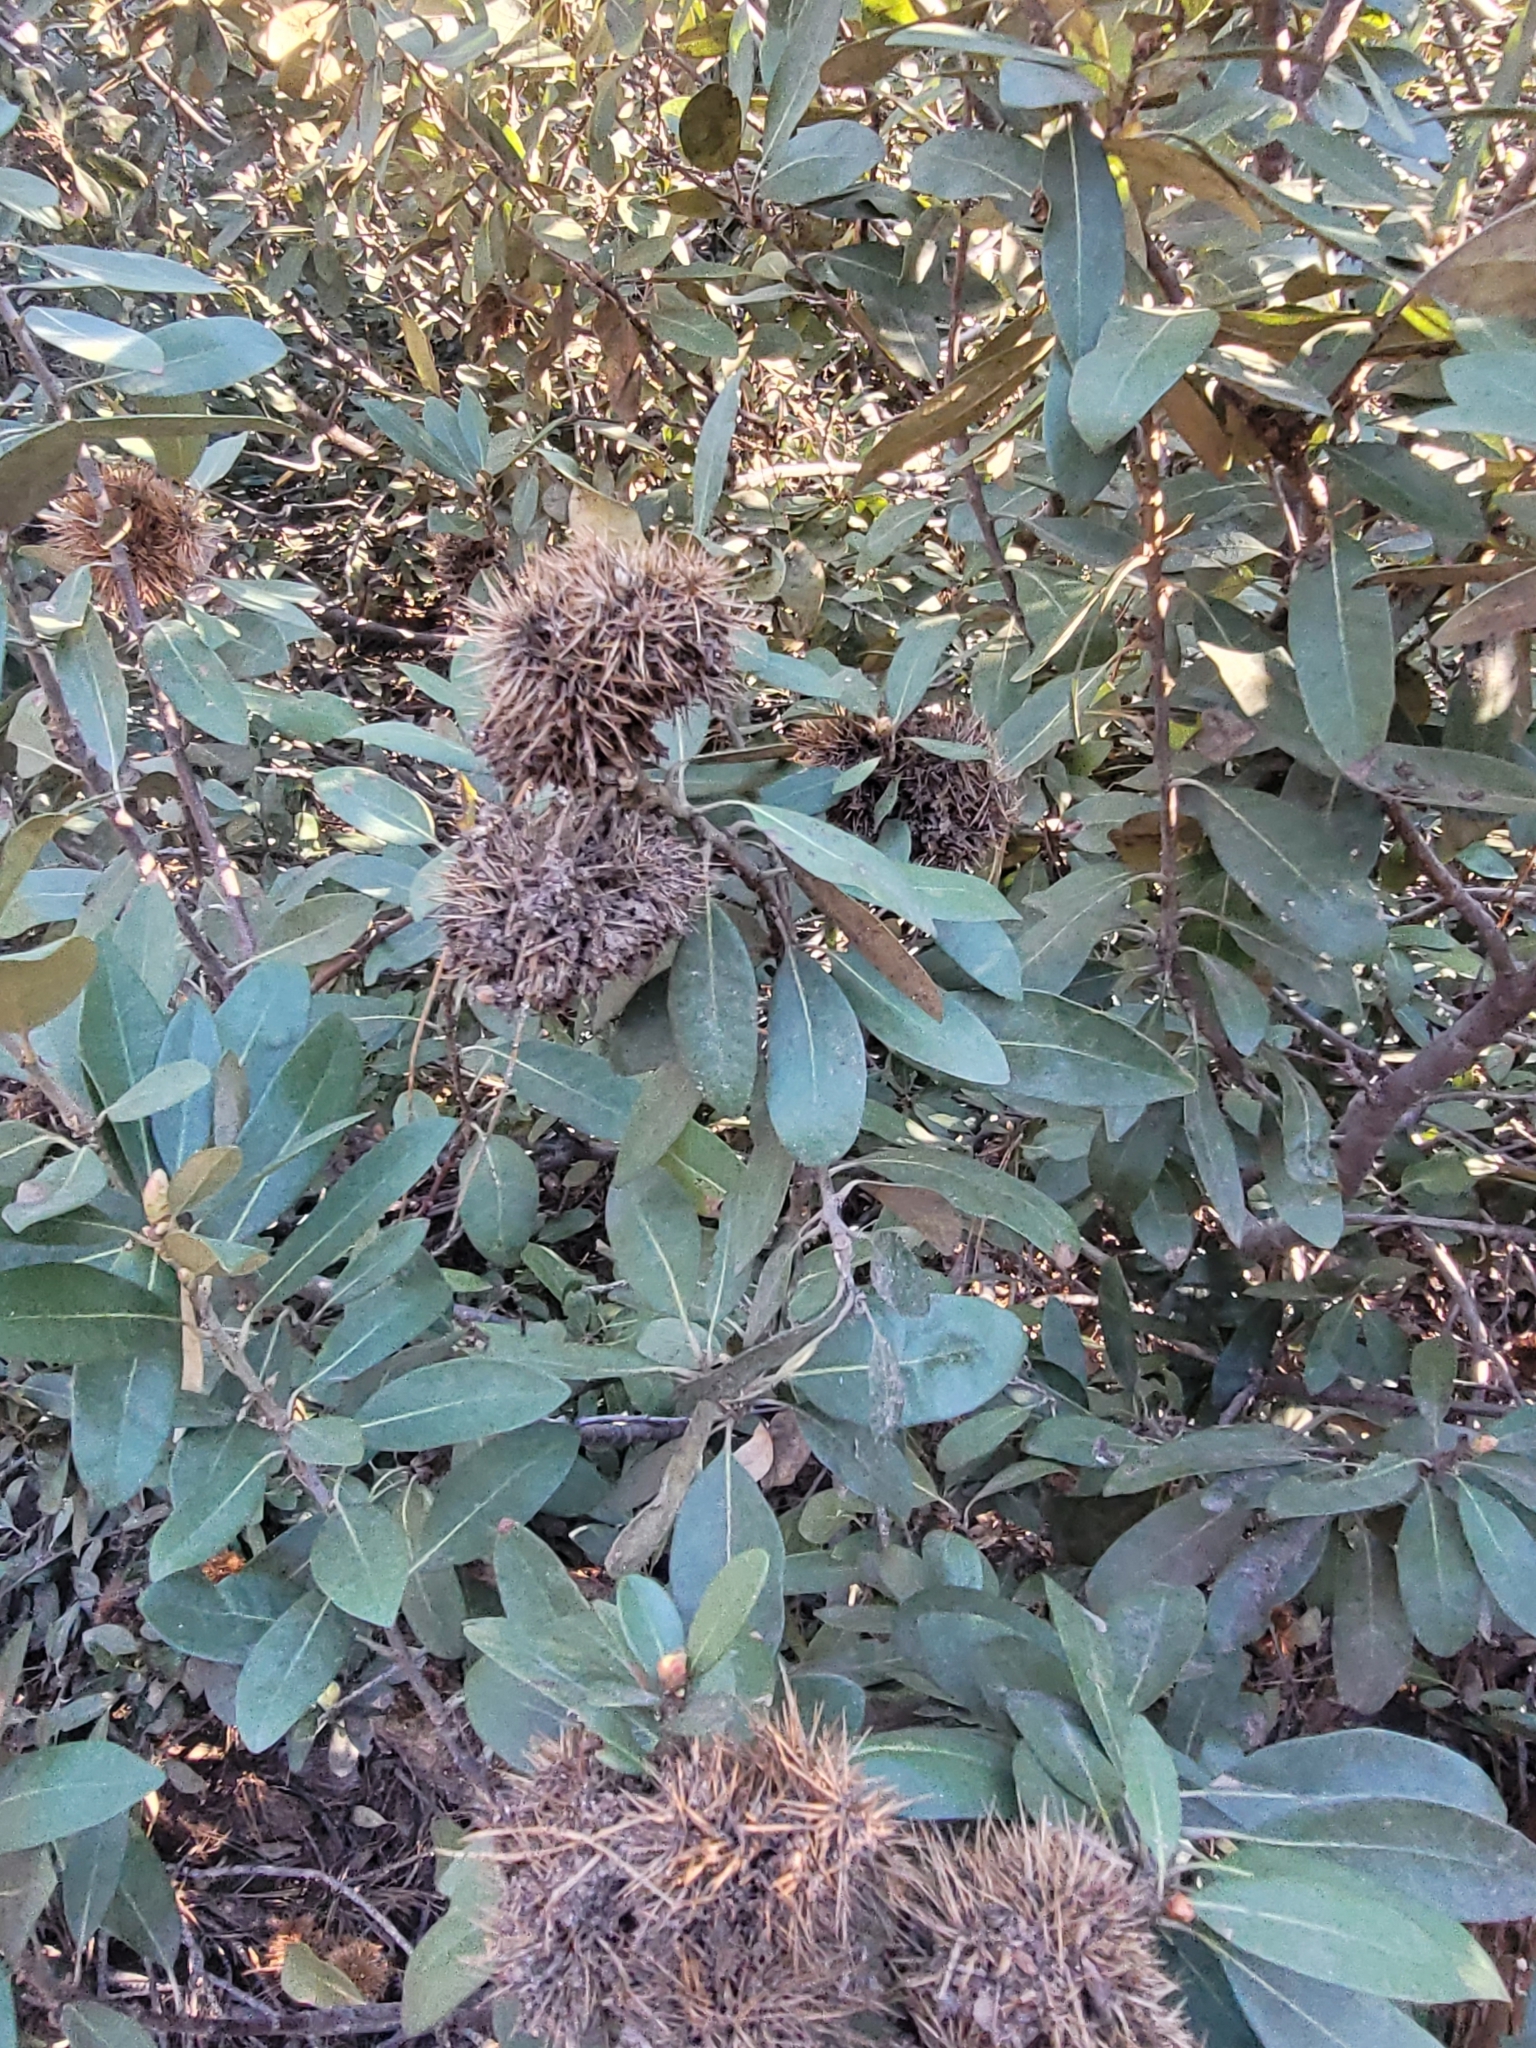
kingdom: Plantae
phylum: Tracheophyta
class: Magnoliopsida
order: Fagales
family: Fagaceae
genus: Chrysolepis
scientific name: Chrysolepis sempervirens
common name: Bush chinquapin
